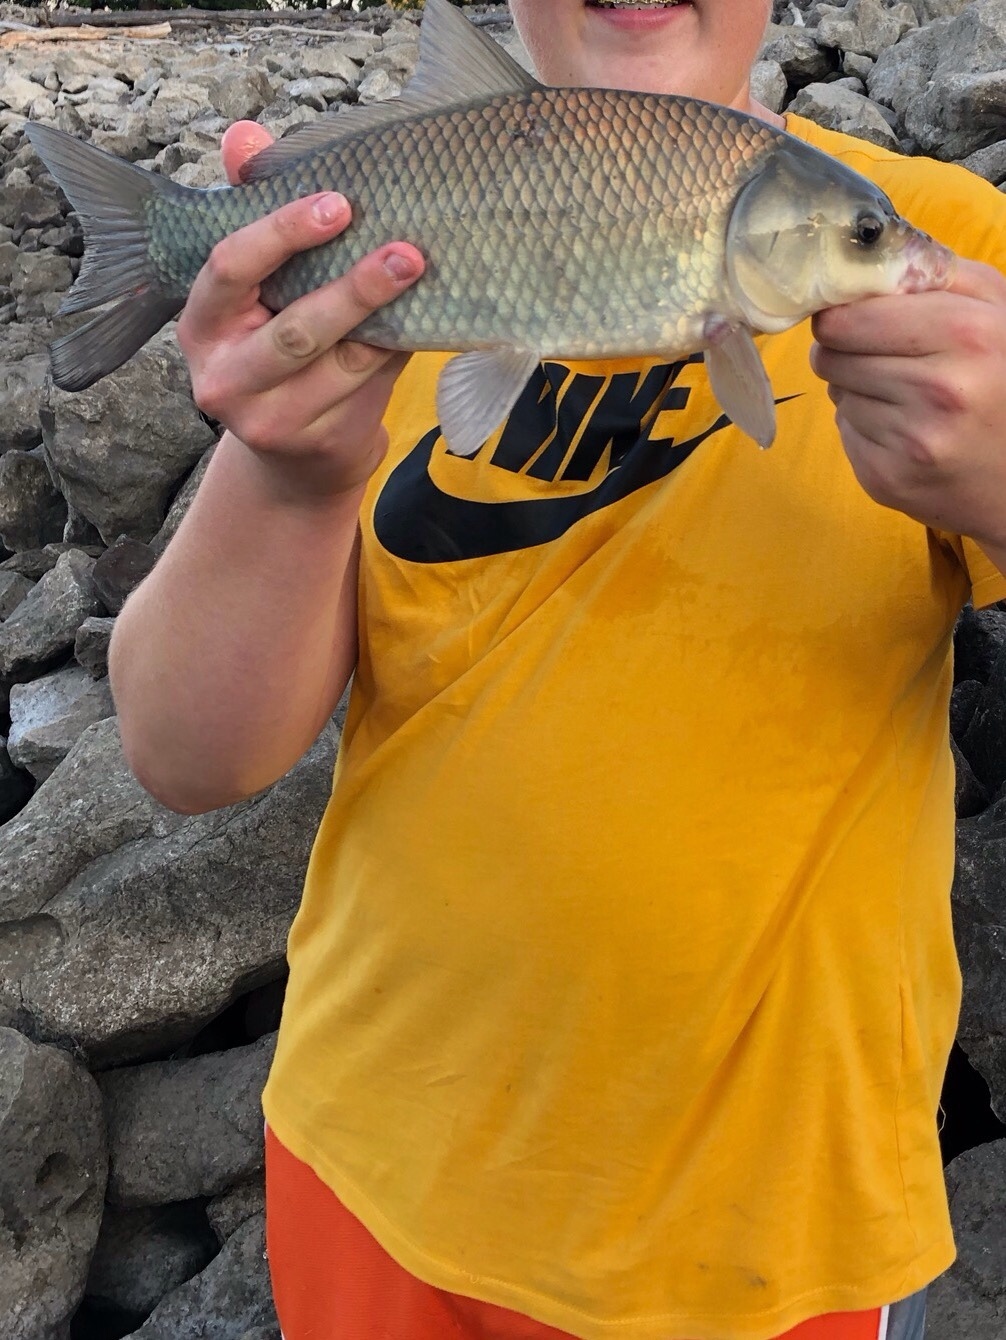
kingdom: Animalia
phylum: Chordata
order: Cypriniformes
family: Catostomidae
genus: Ictiobus
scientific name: Ictiobus cyprinellus
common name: Bigmouth buffalo
